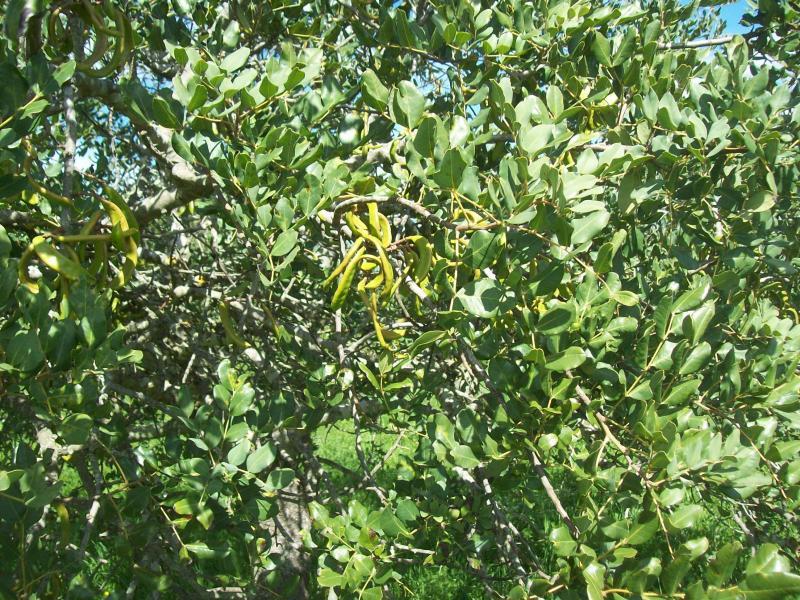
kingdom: Plantae
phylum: Tracheophyta
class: Magnoliopsida
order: Fabales
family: Fabaceae
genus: Ceratonia
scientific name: Ceratonia siliqua
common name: Carob
